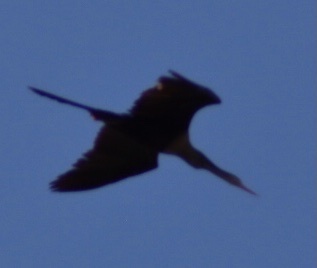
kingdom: Animalia
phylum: Chordata
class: Aves
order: Suliformes
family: Anhingidae
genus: Anhinga
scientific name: Anhinga anhinga
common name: Anhinga
